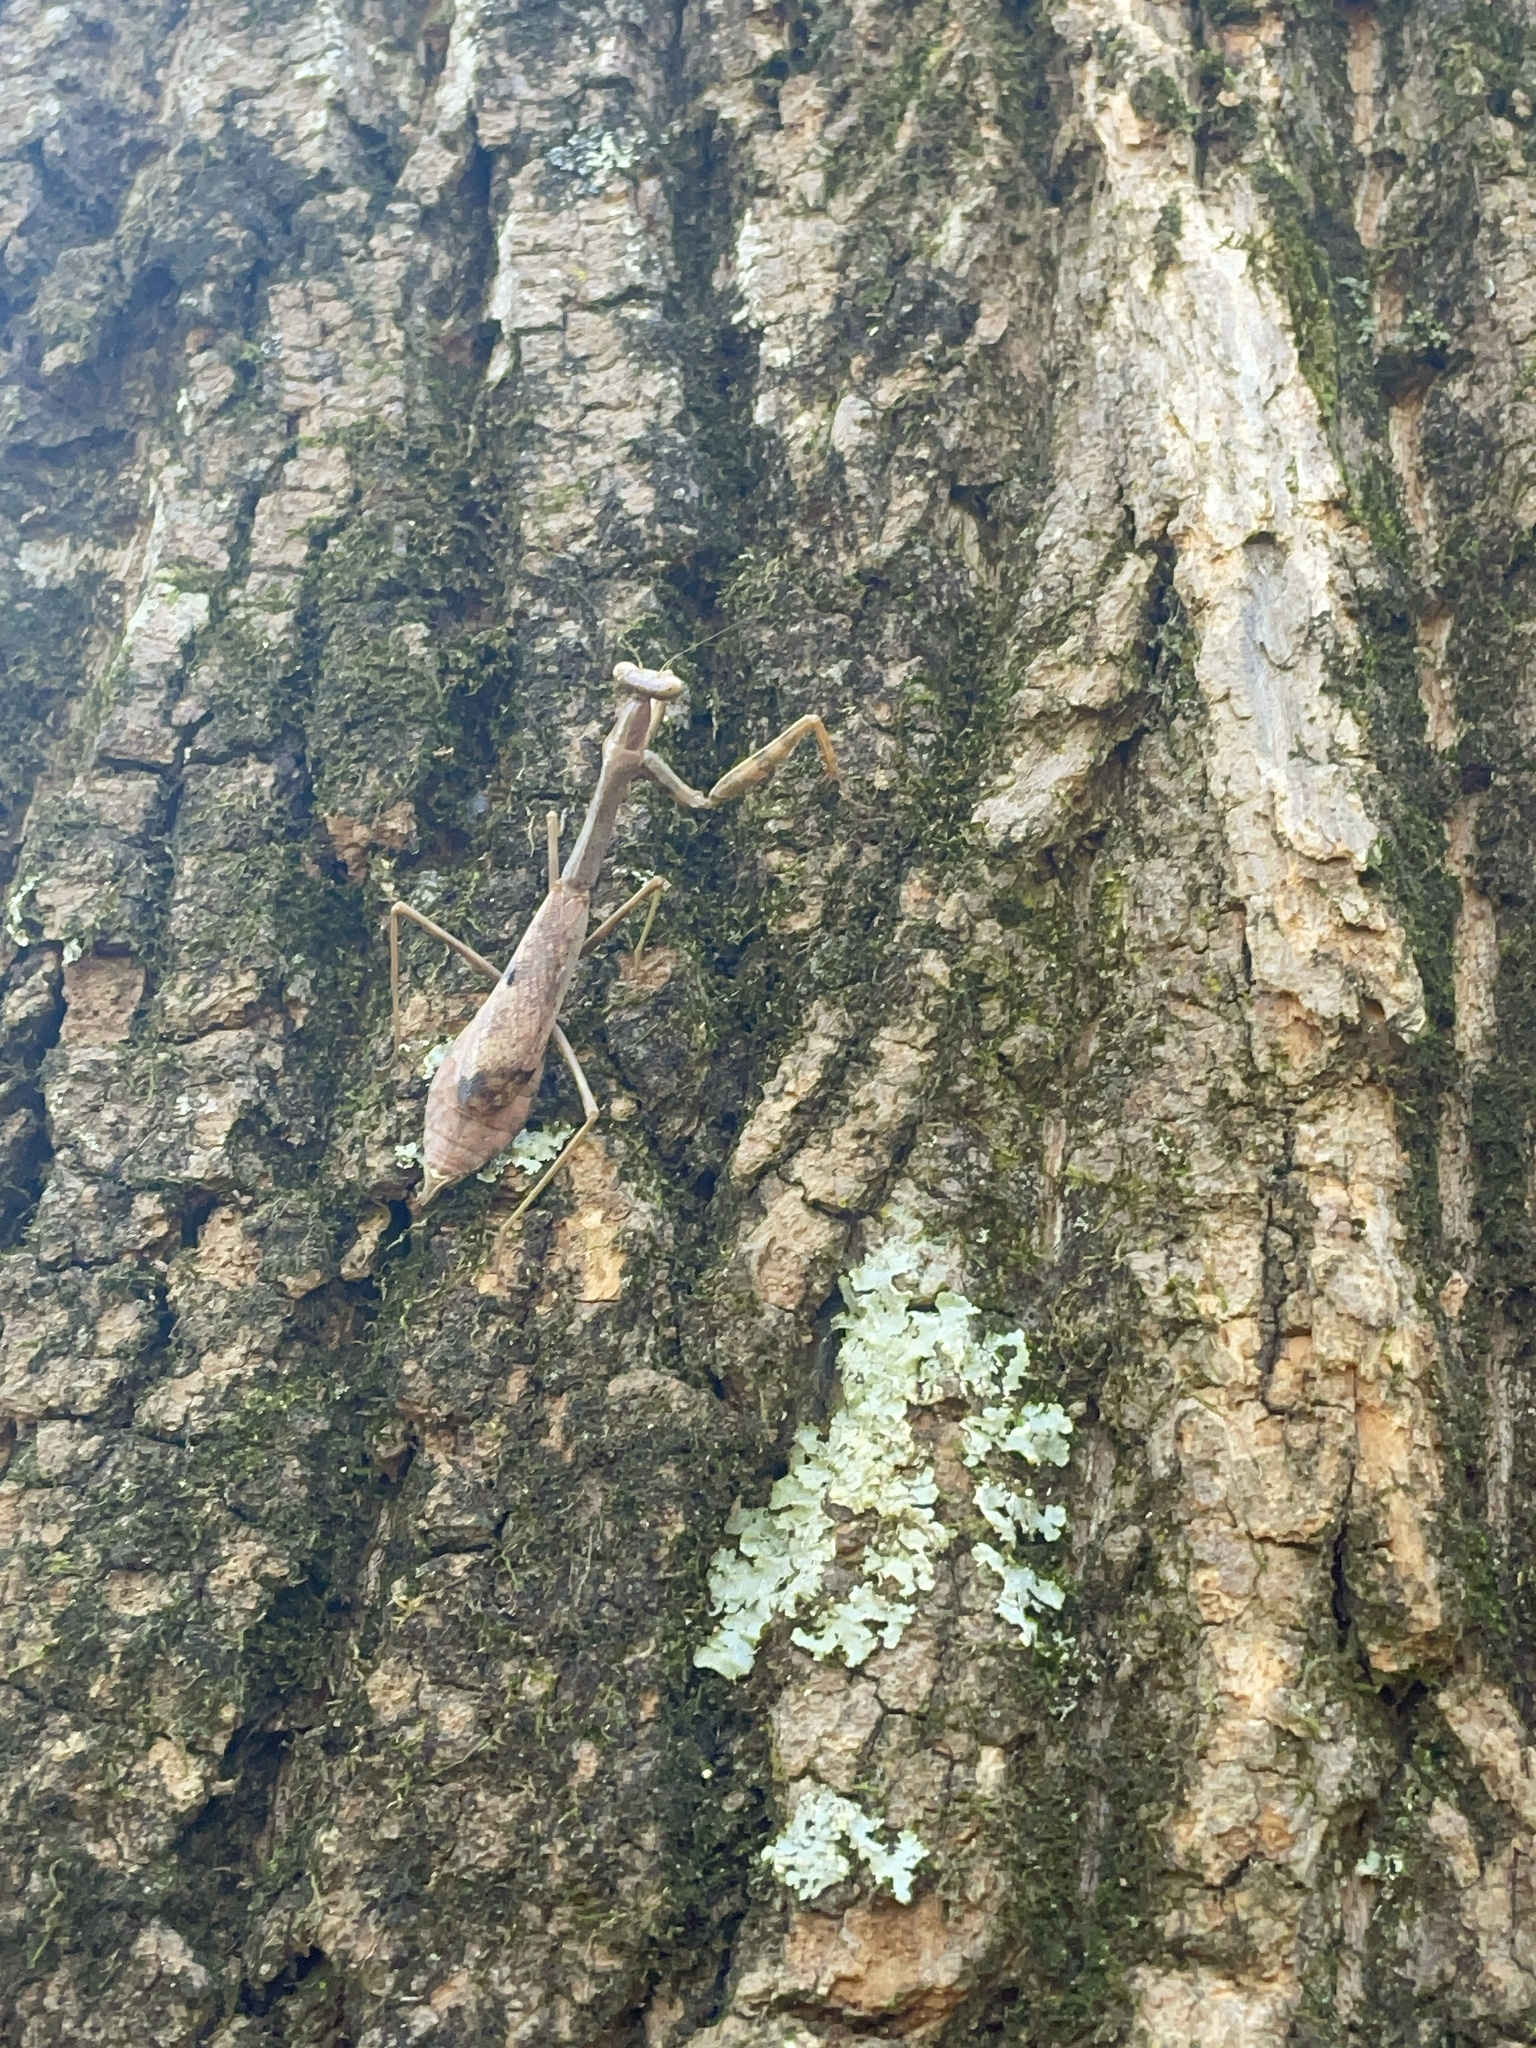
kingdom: Animalia
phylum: Arthropoda
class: Insecta
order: Mantodea
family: Mantidae
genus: Stagmomantis
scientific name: Stagmomantis carolina
